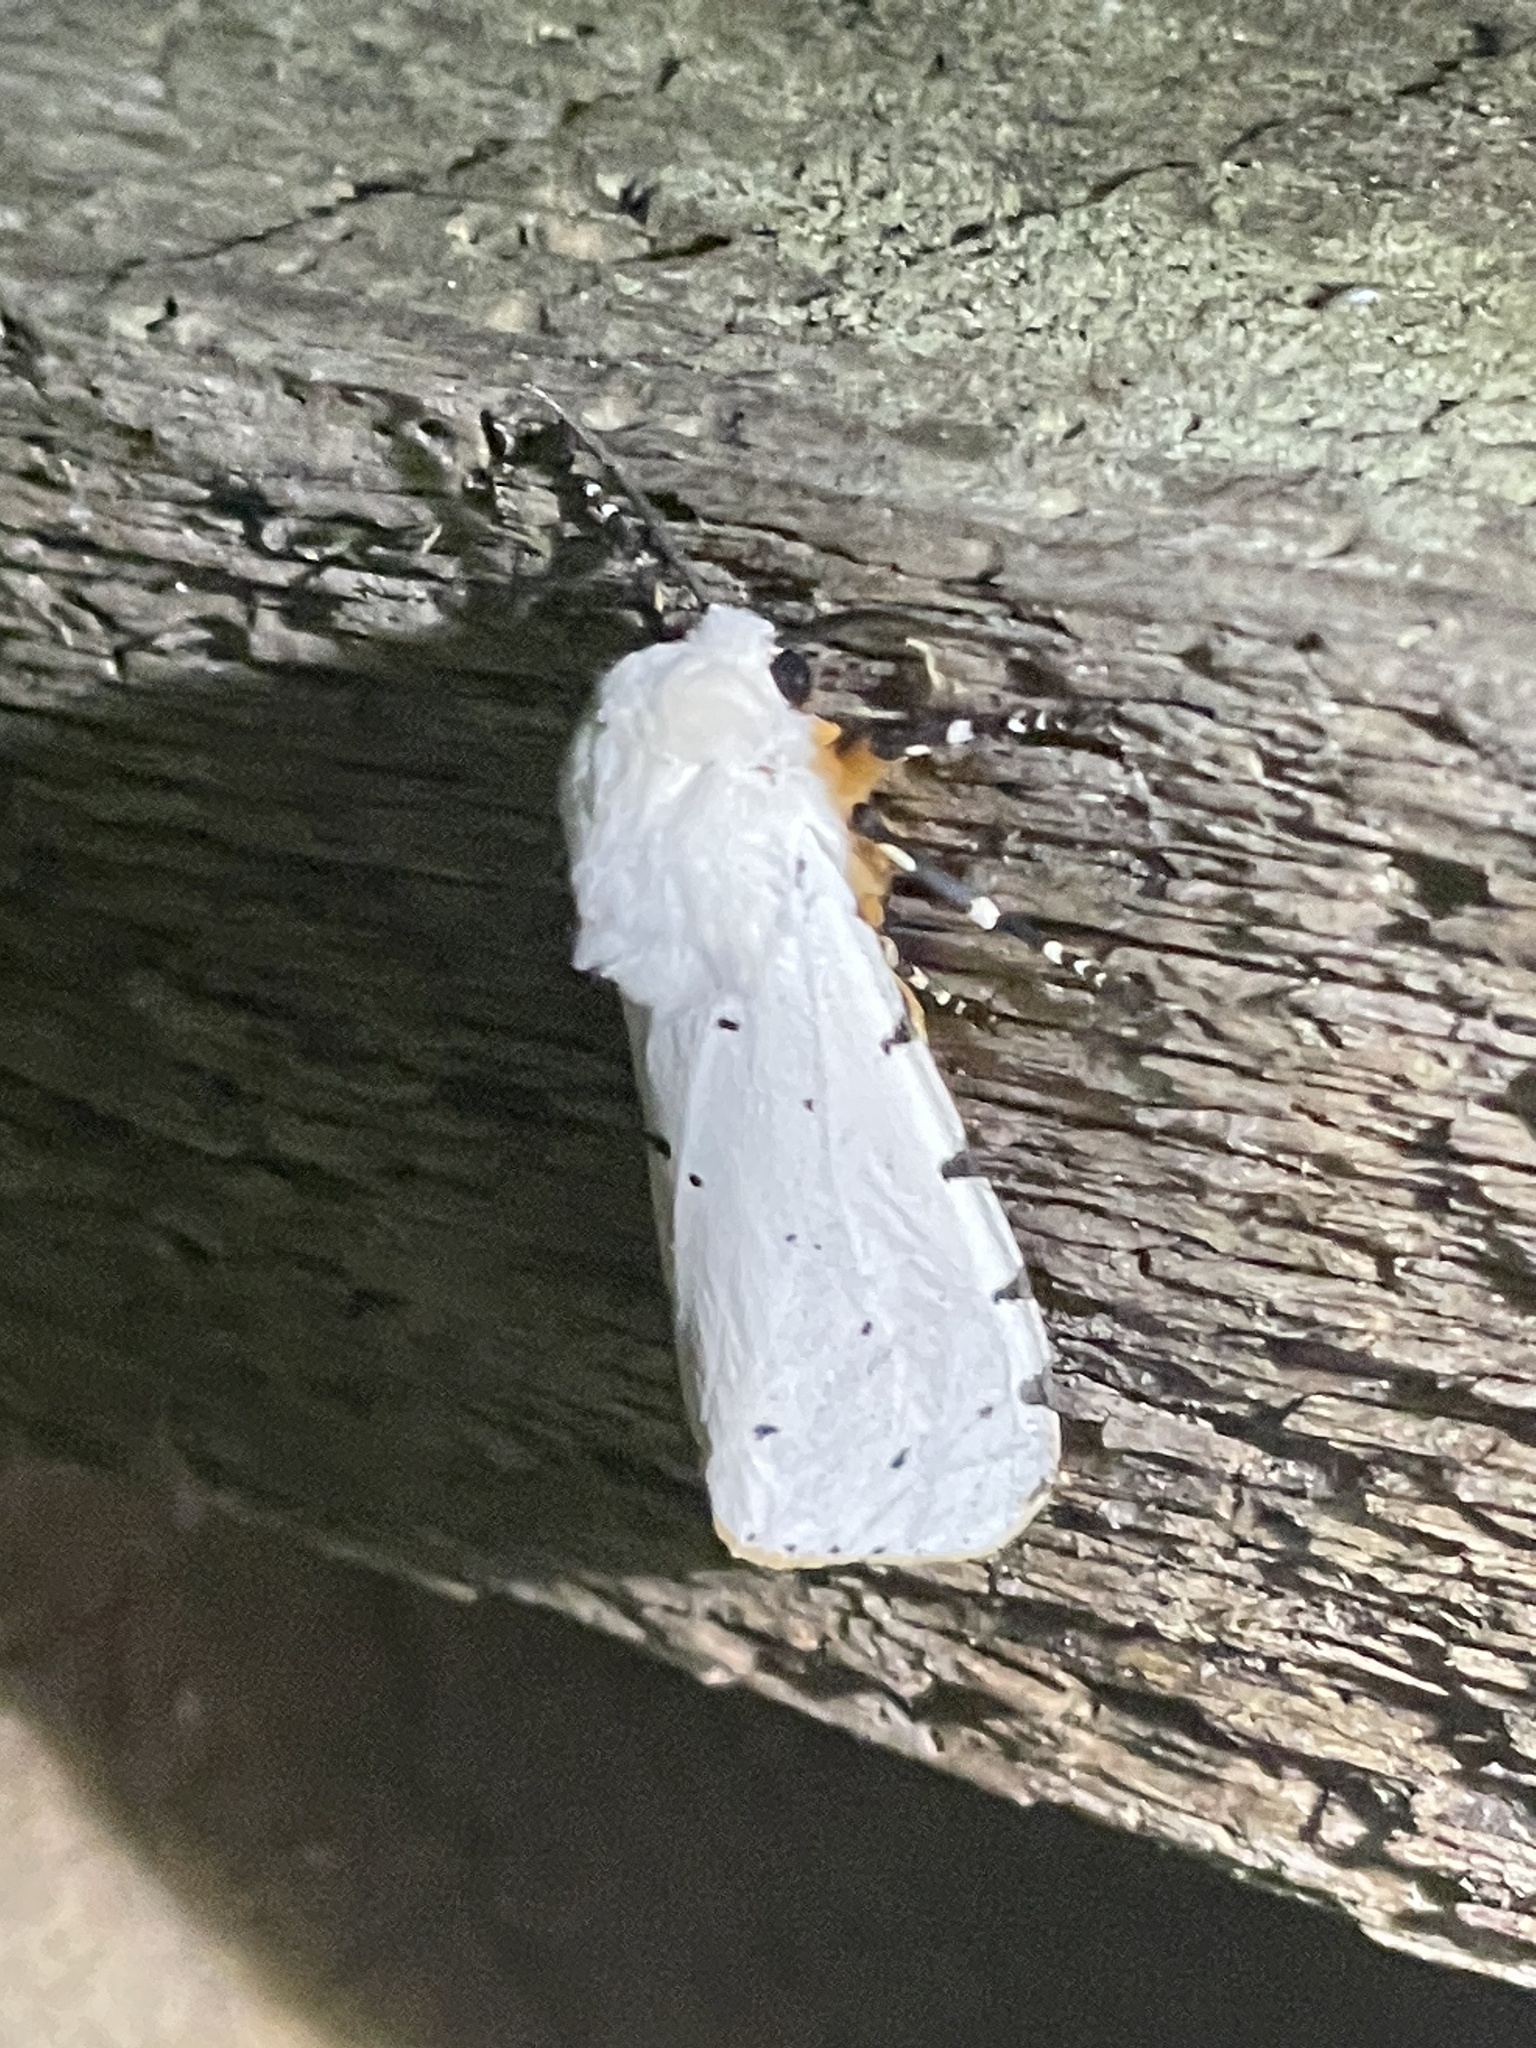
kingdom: Animalia
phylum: Arthropoda
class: Insecta
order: Lepidoptera
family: Erebidae
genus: Estigmene
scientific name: Estigmene acrea
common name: Salt marsh moth
